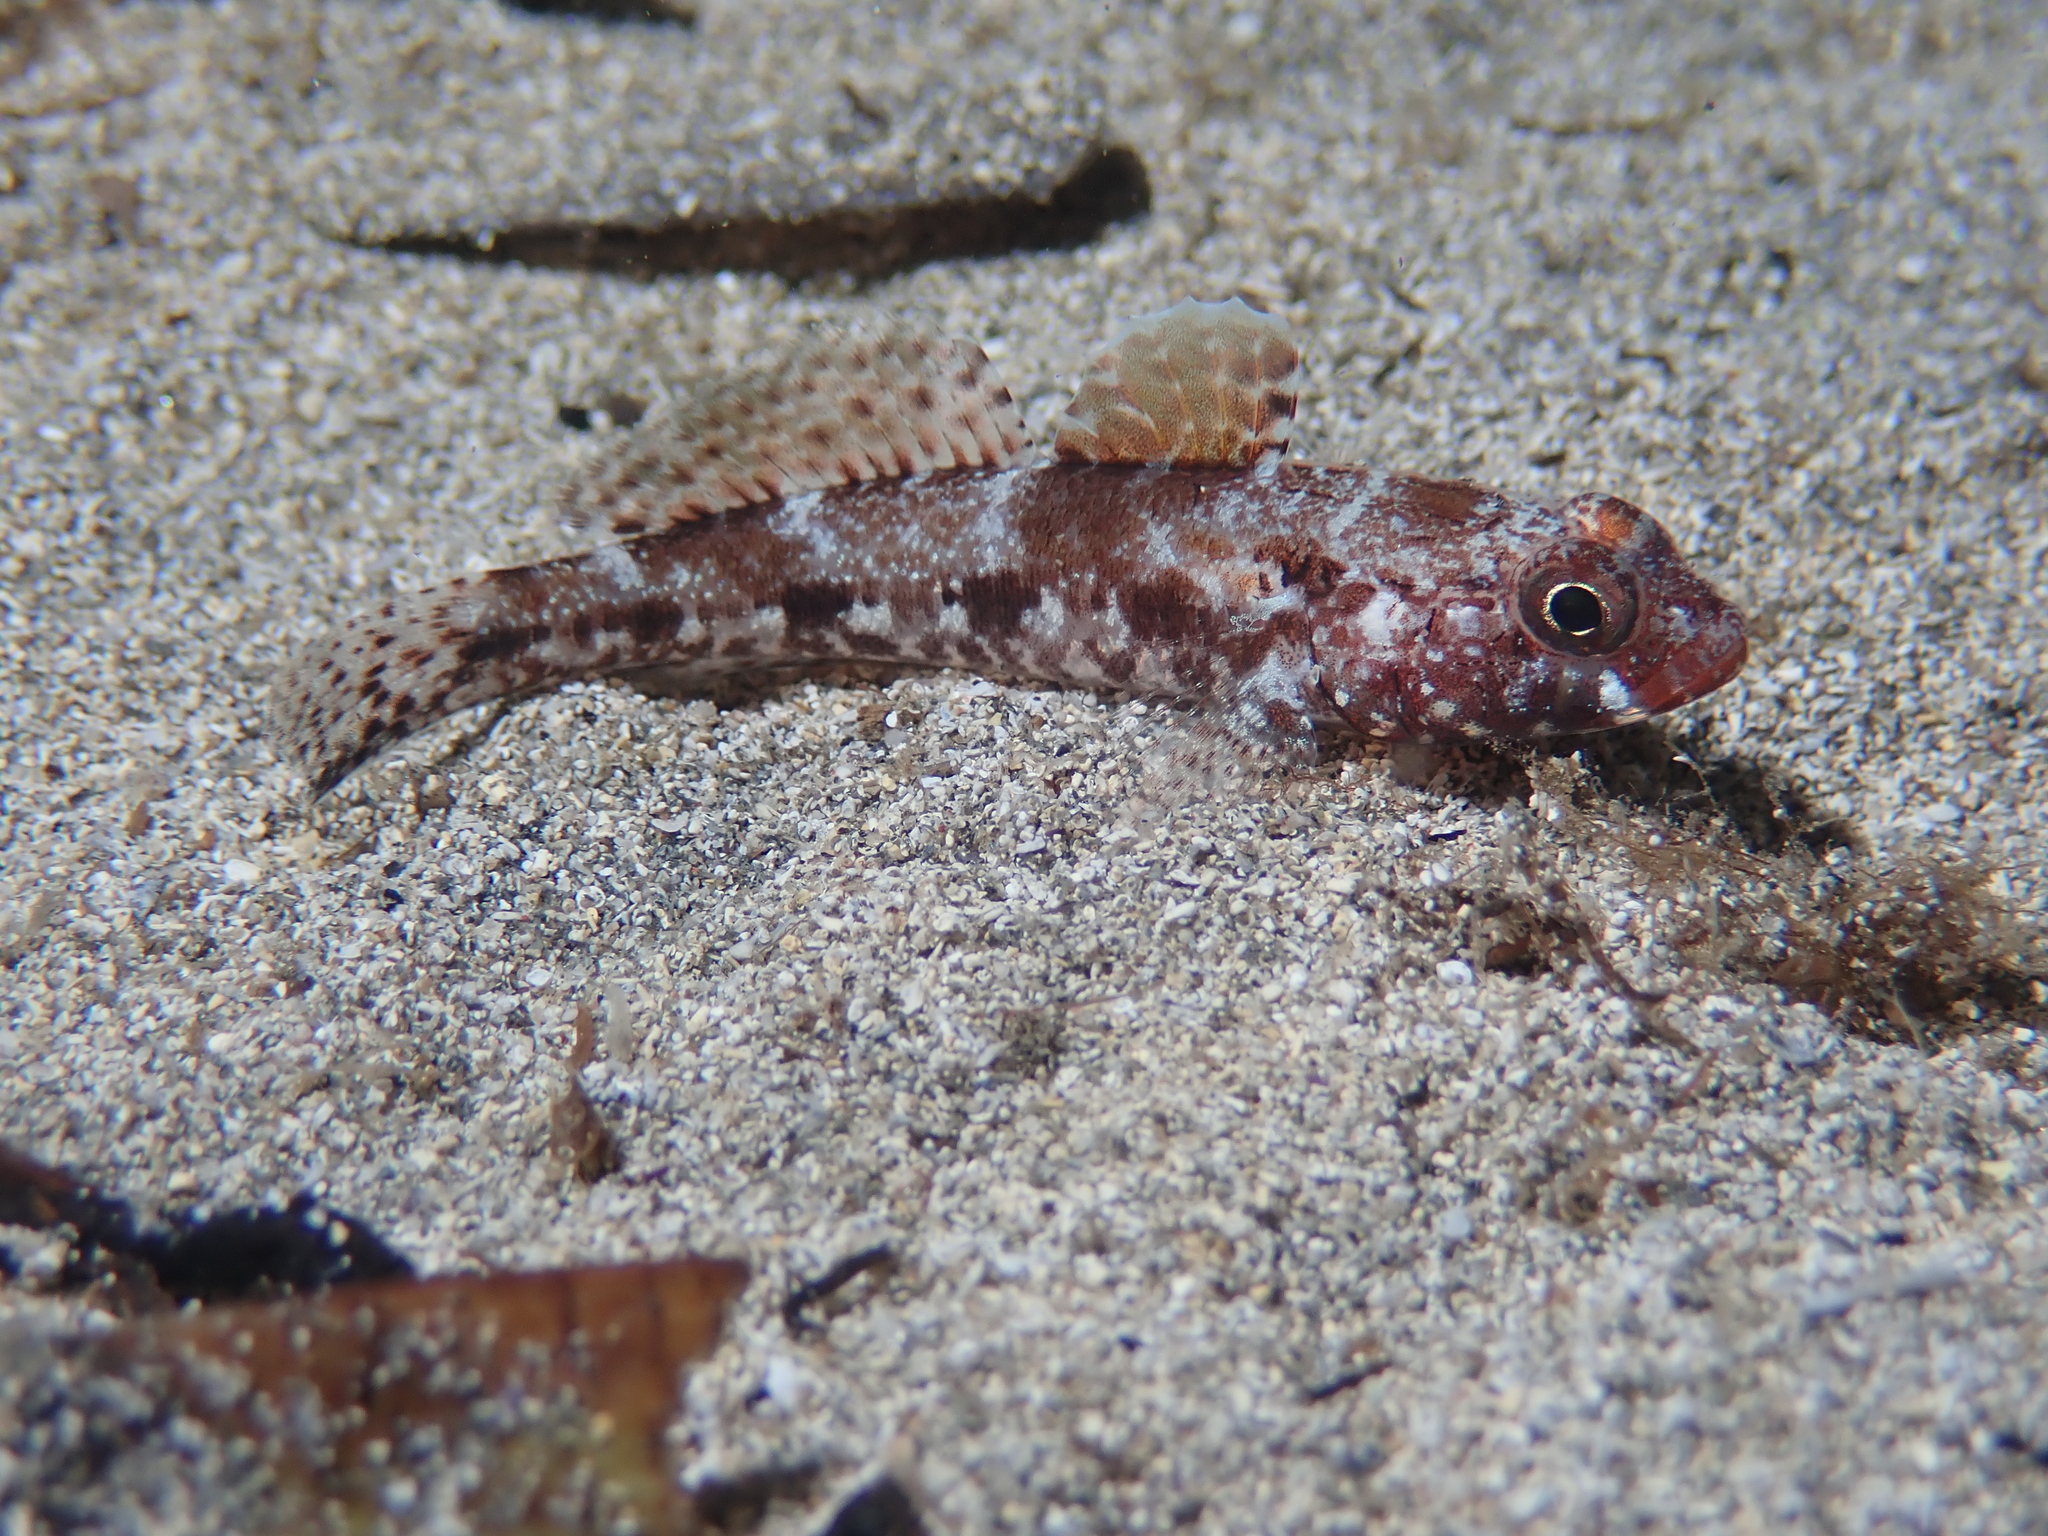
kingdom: Animalia
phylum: Chordata
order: Perciformes
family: Gobiidae
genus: Gobius
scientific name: Gobius cruentatus
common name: Red-mouthed goby
